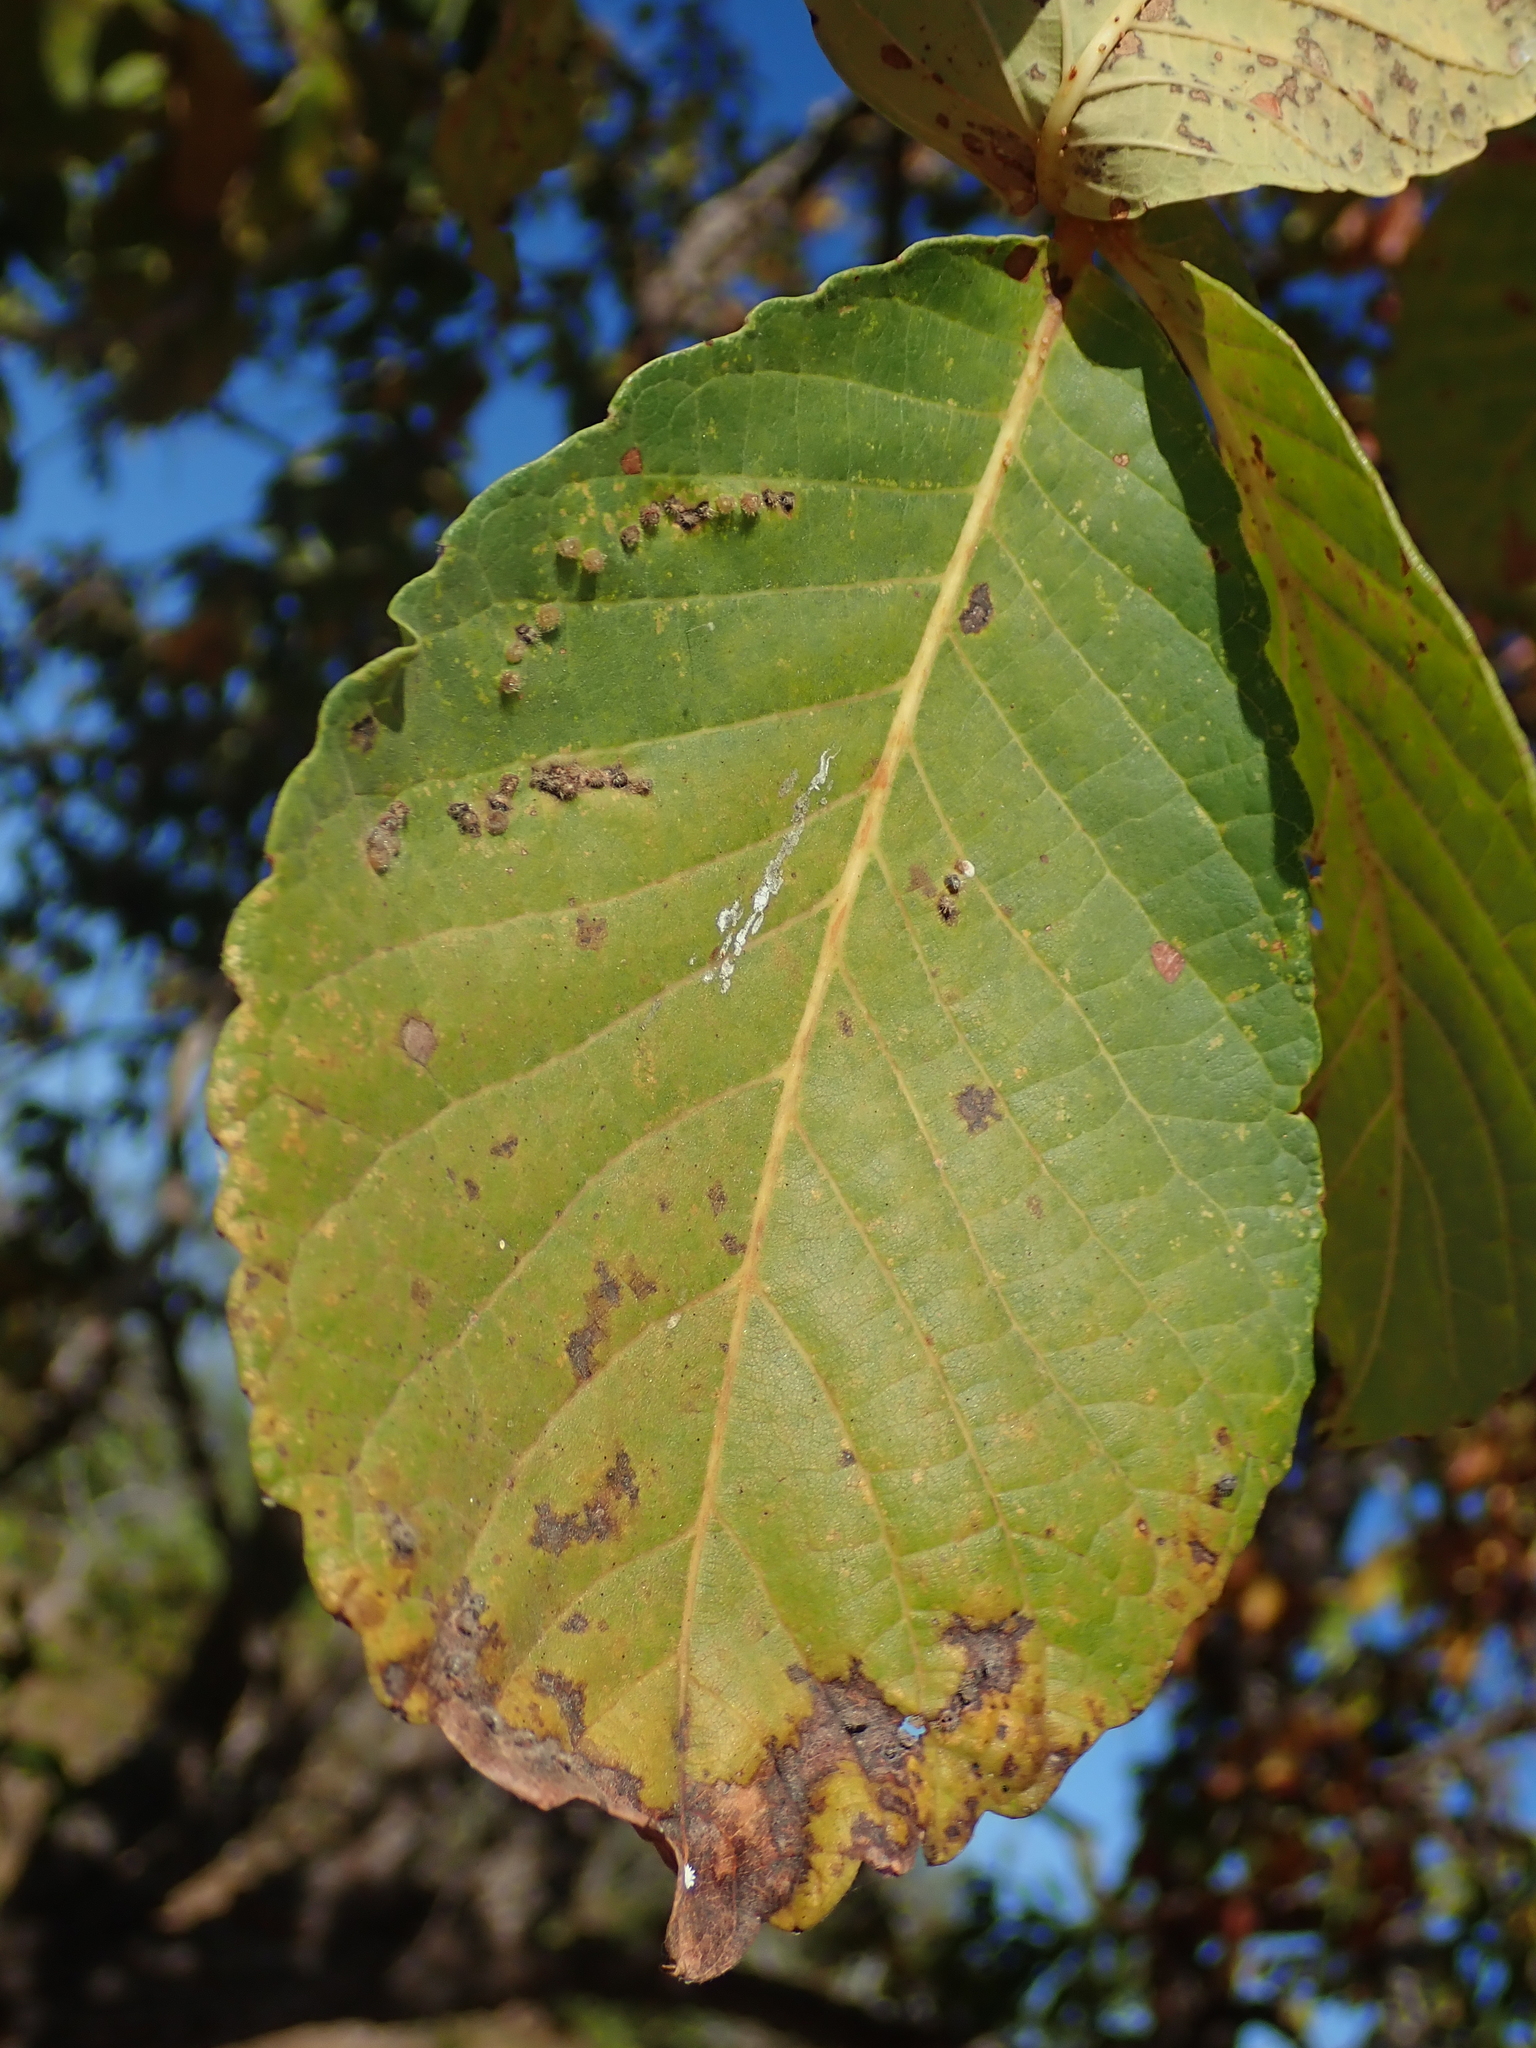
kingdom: Plantae
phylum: Tracheophyta
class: Magnoliopsida
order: Malpighiales
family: Caryocaraceae
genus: Caryocar
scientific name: Caryocar brasiliense
